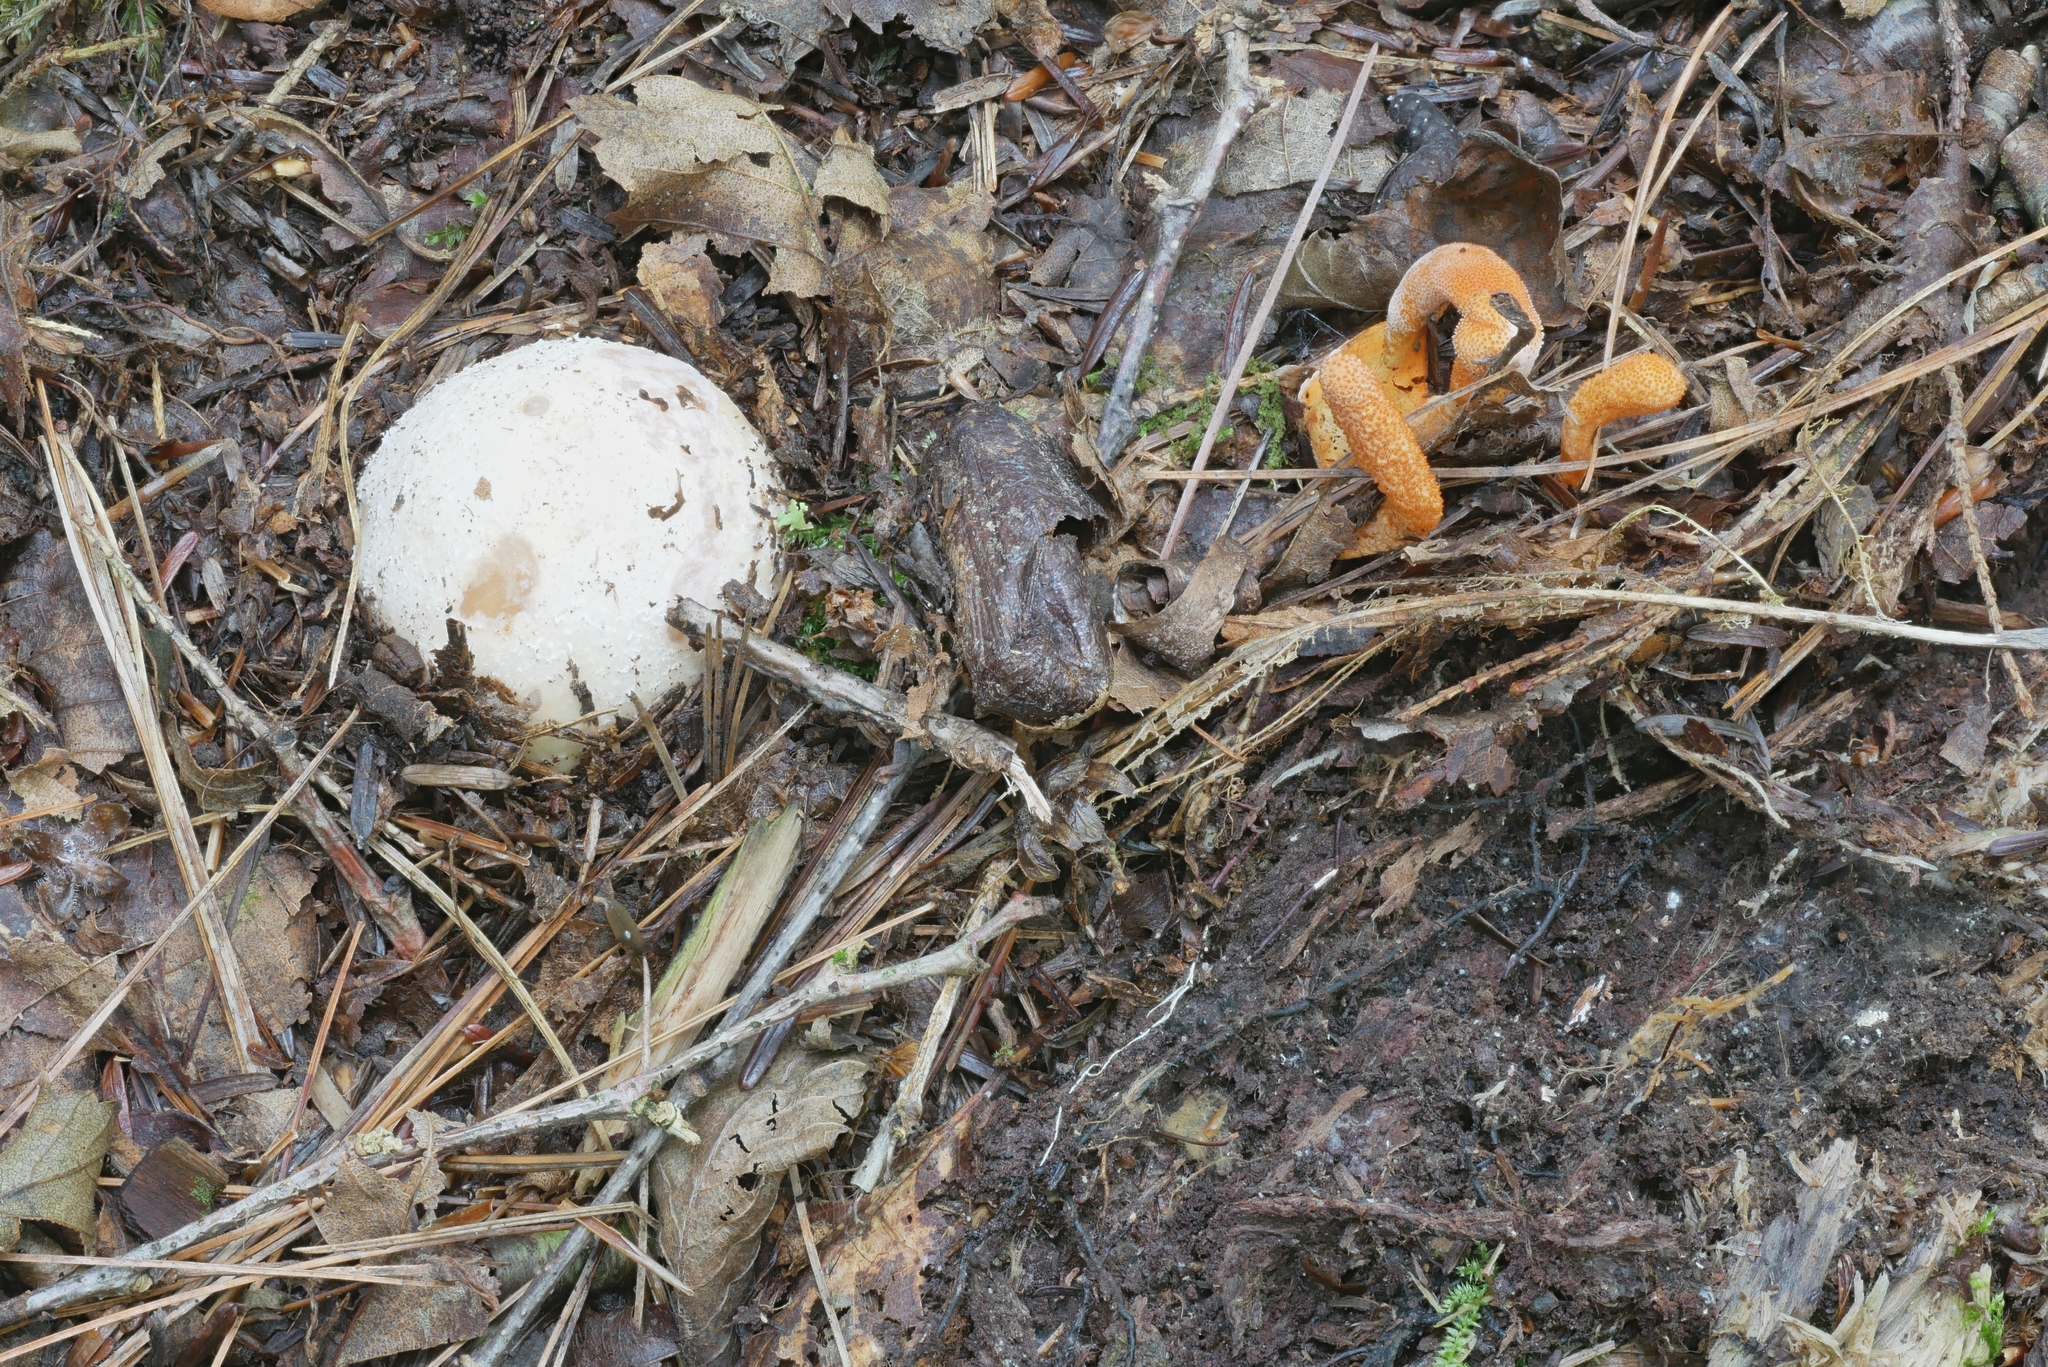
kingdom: Fungi
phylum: Ascomycota
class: Sordariomycetes
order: Hypocreales
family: Cordycipitaceae
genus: Cordyceps
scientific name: Cordyceps militaris
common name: Scarlet caterpillar fungus
